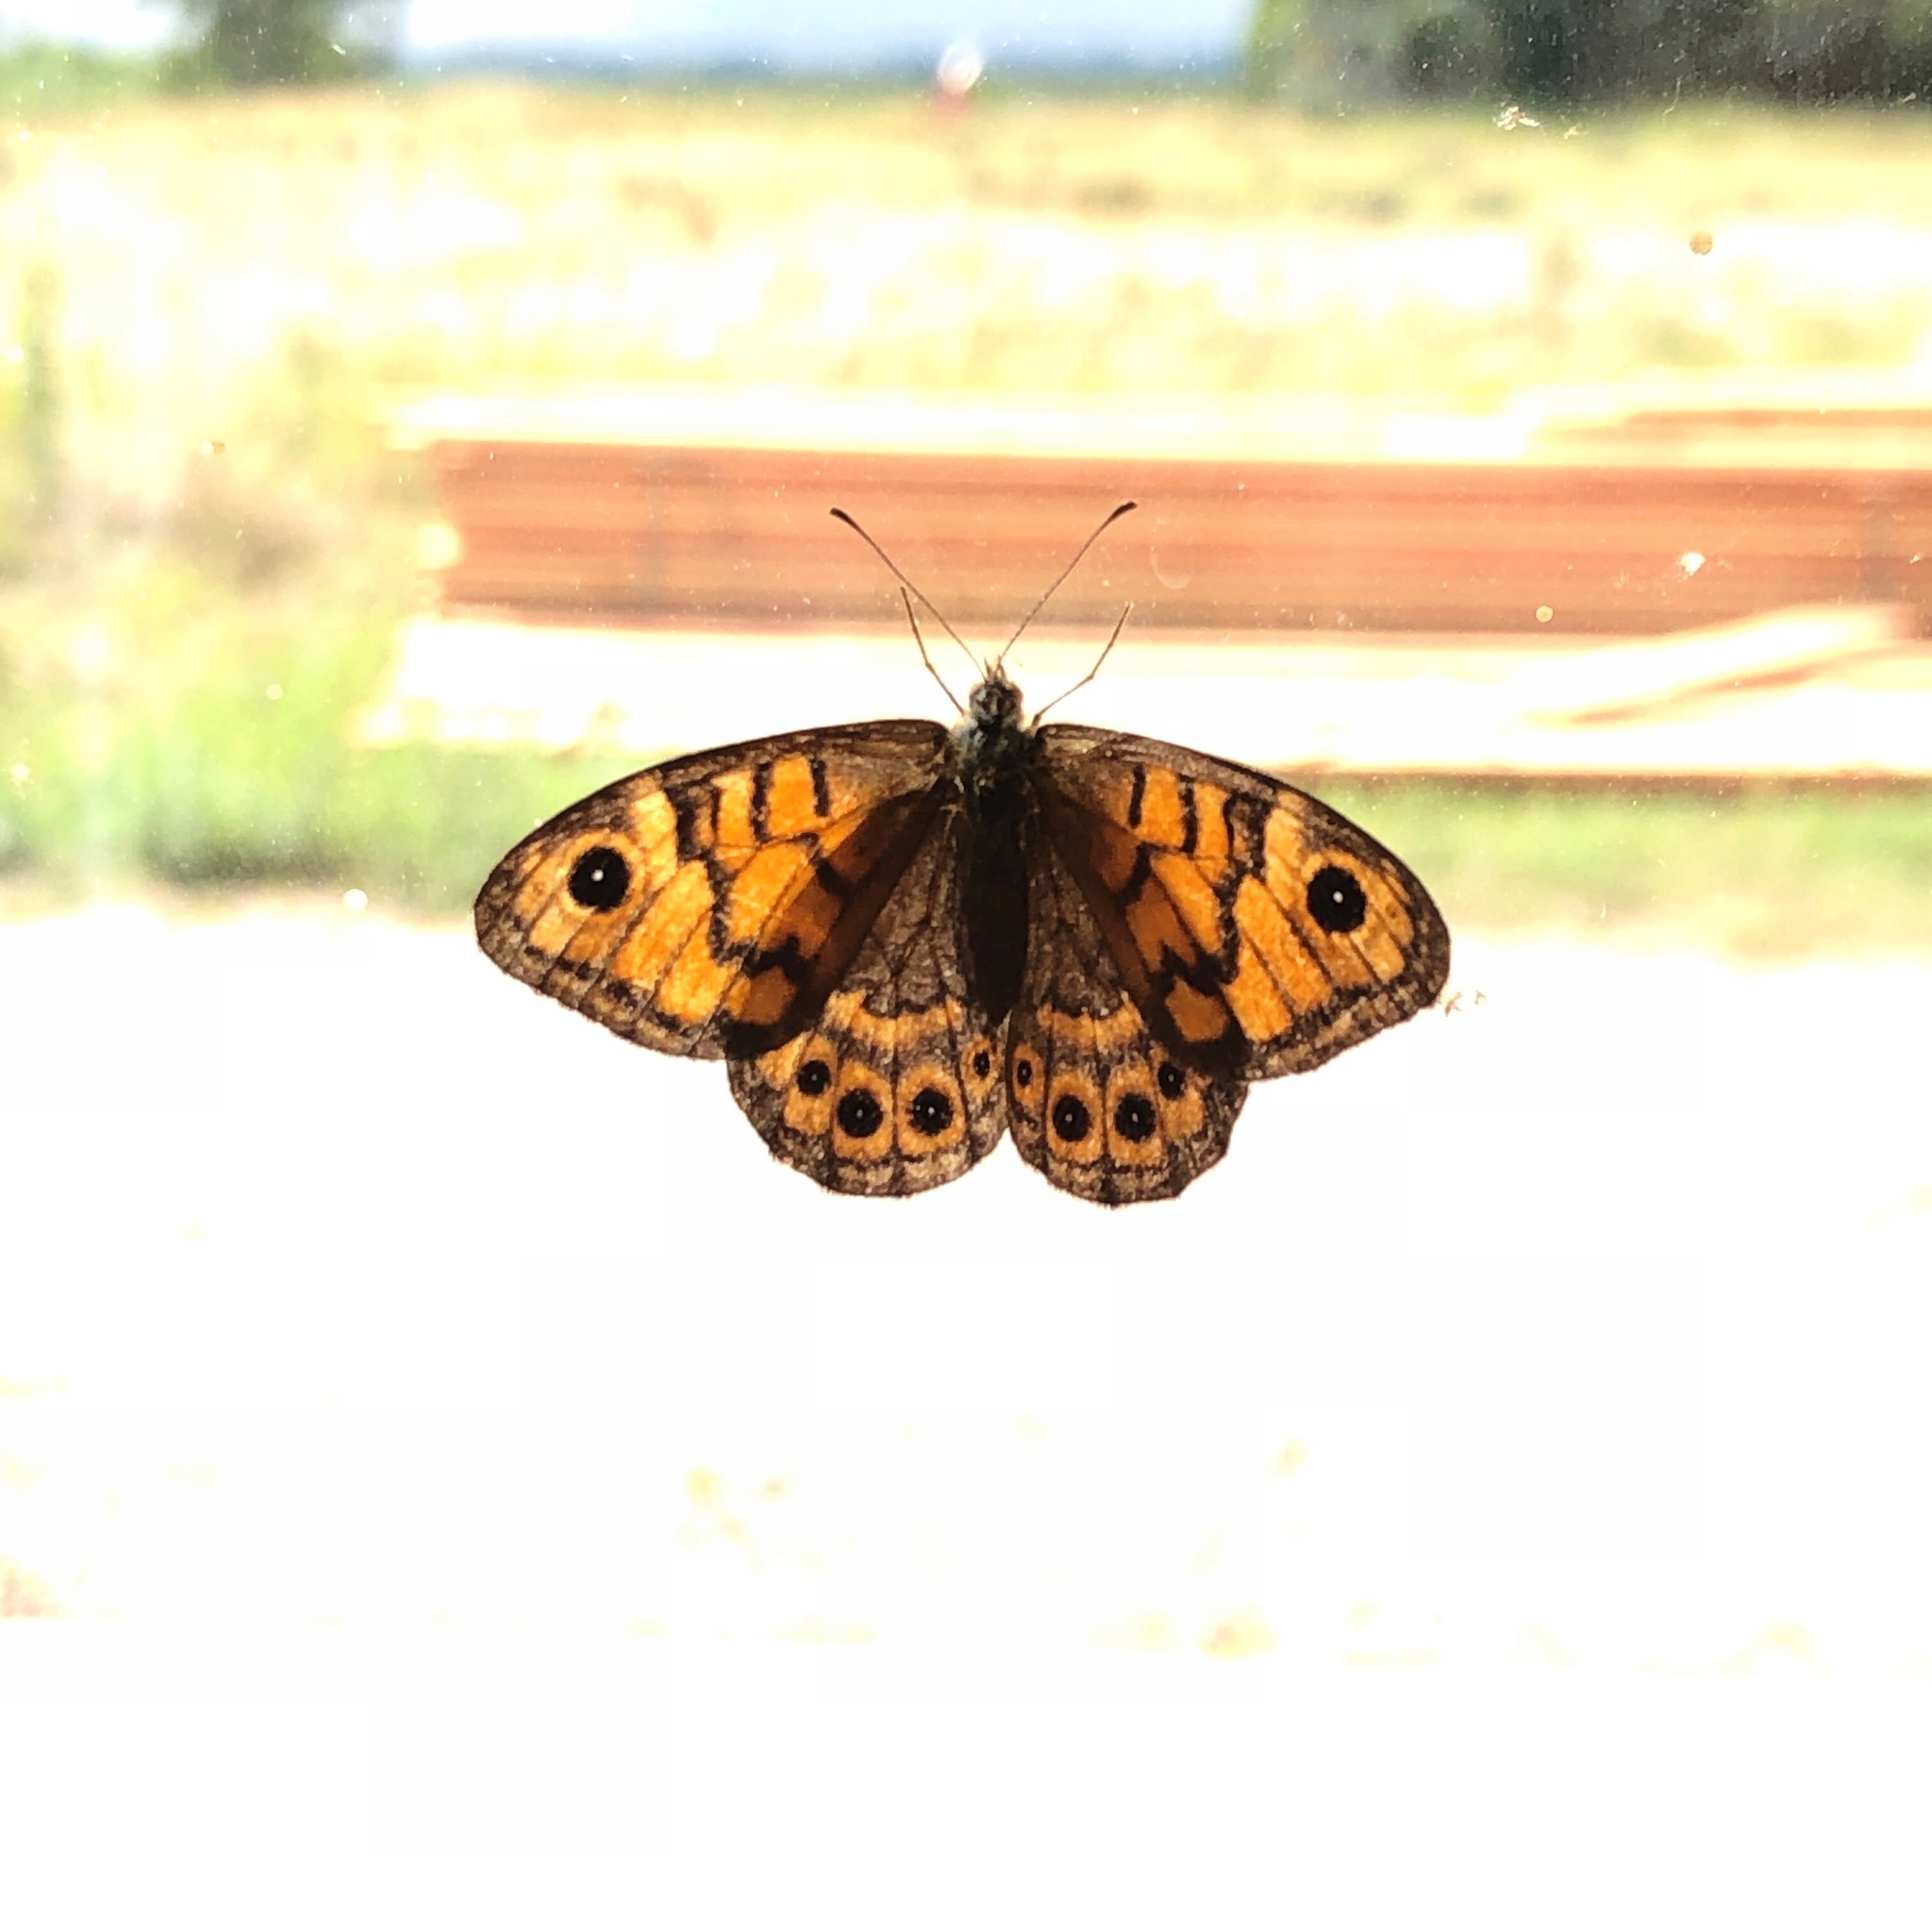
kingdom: Animalia
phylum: Arthropoda
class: Insecta
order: Lepidoptera
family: Nymphalidae
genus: Pararge
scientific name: Pararge Lasiommata megera
